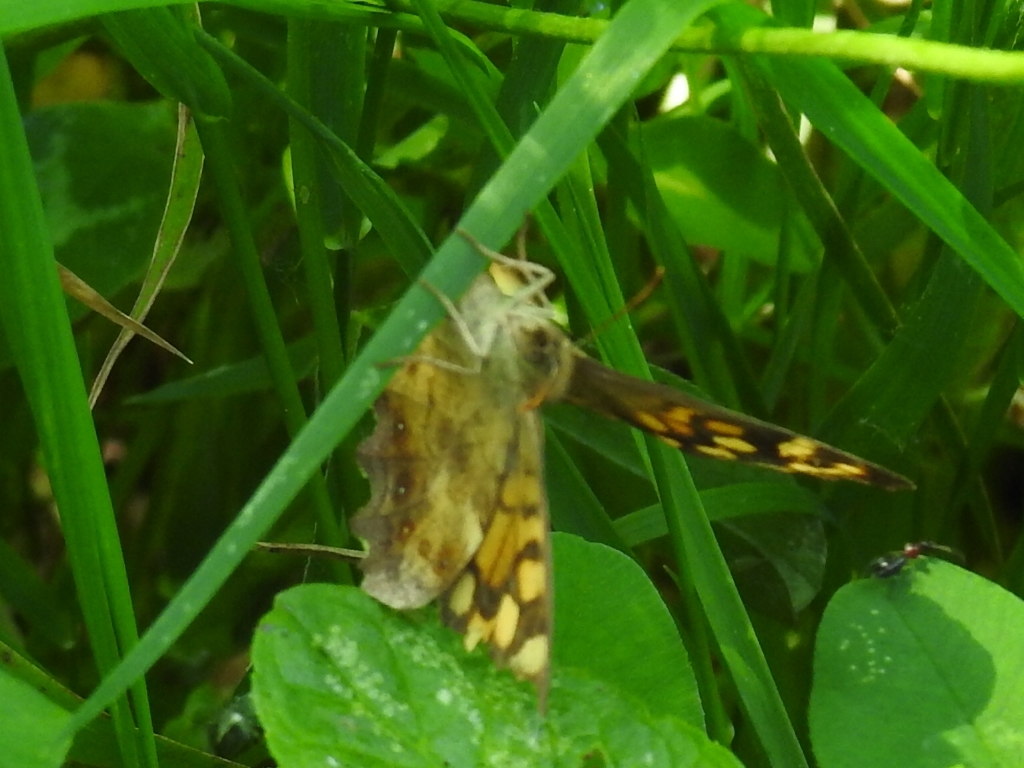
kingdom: Animalia
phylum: Arthropoda
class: Insecta
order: Lepidoptera
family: Nymphalidae
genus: Pararge
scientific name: Pararge aegeria
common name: Speckled wood
